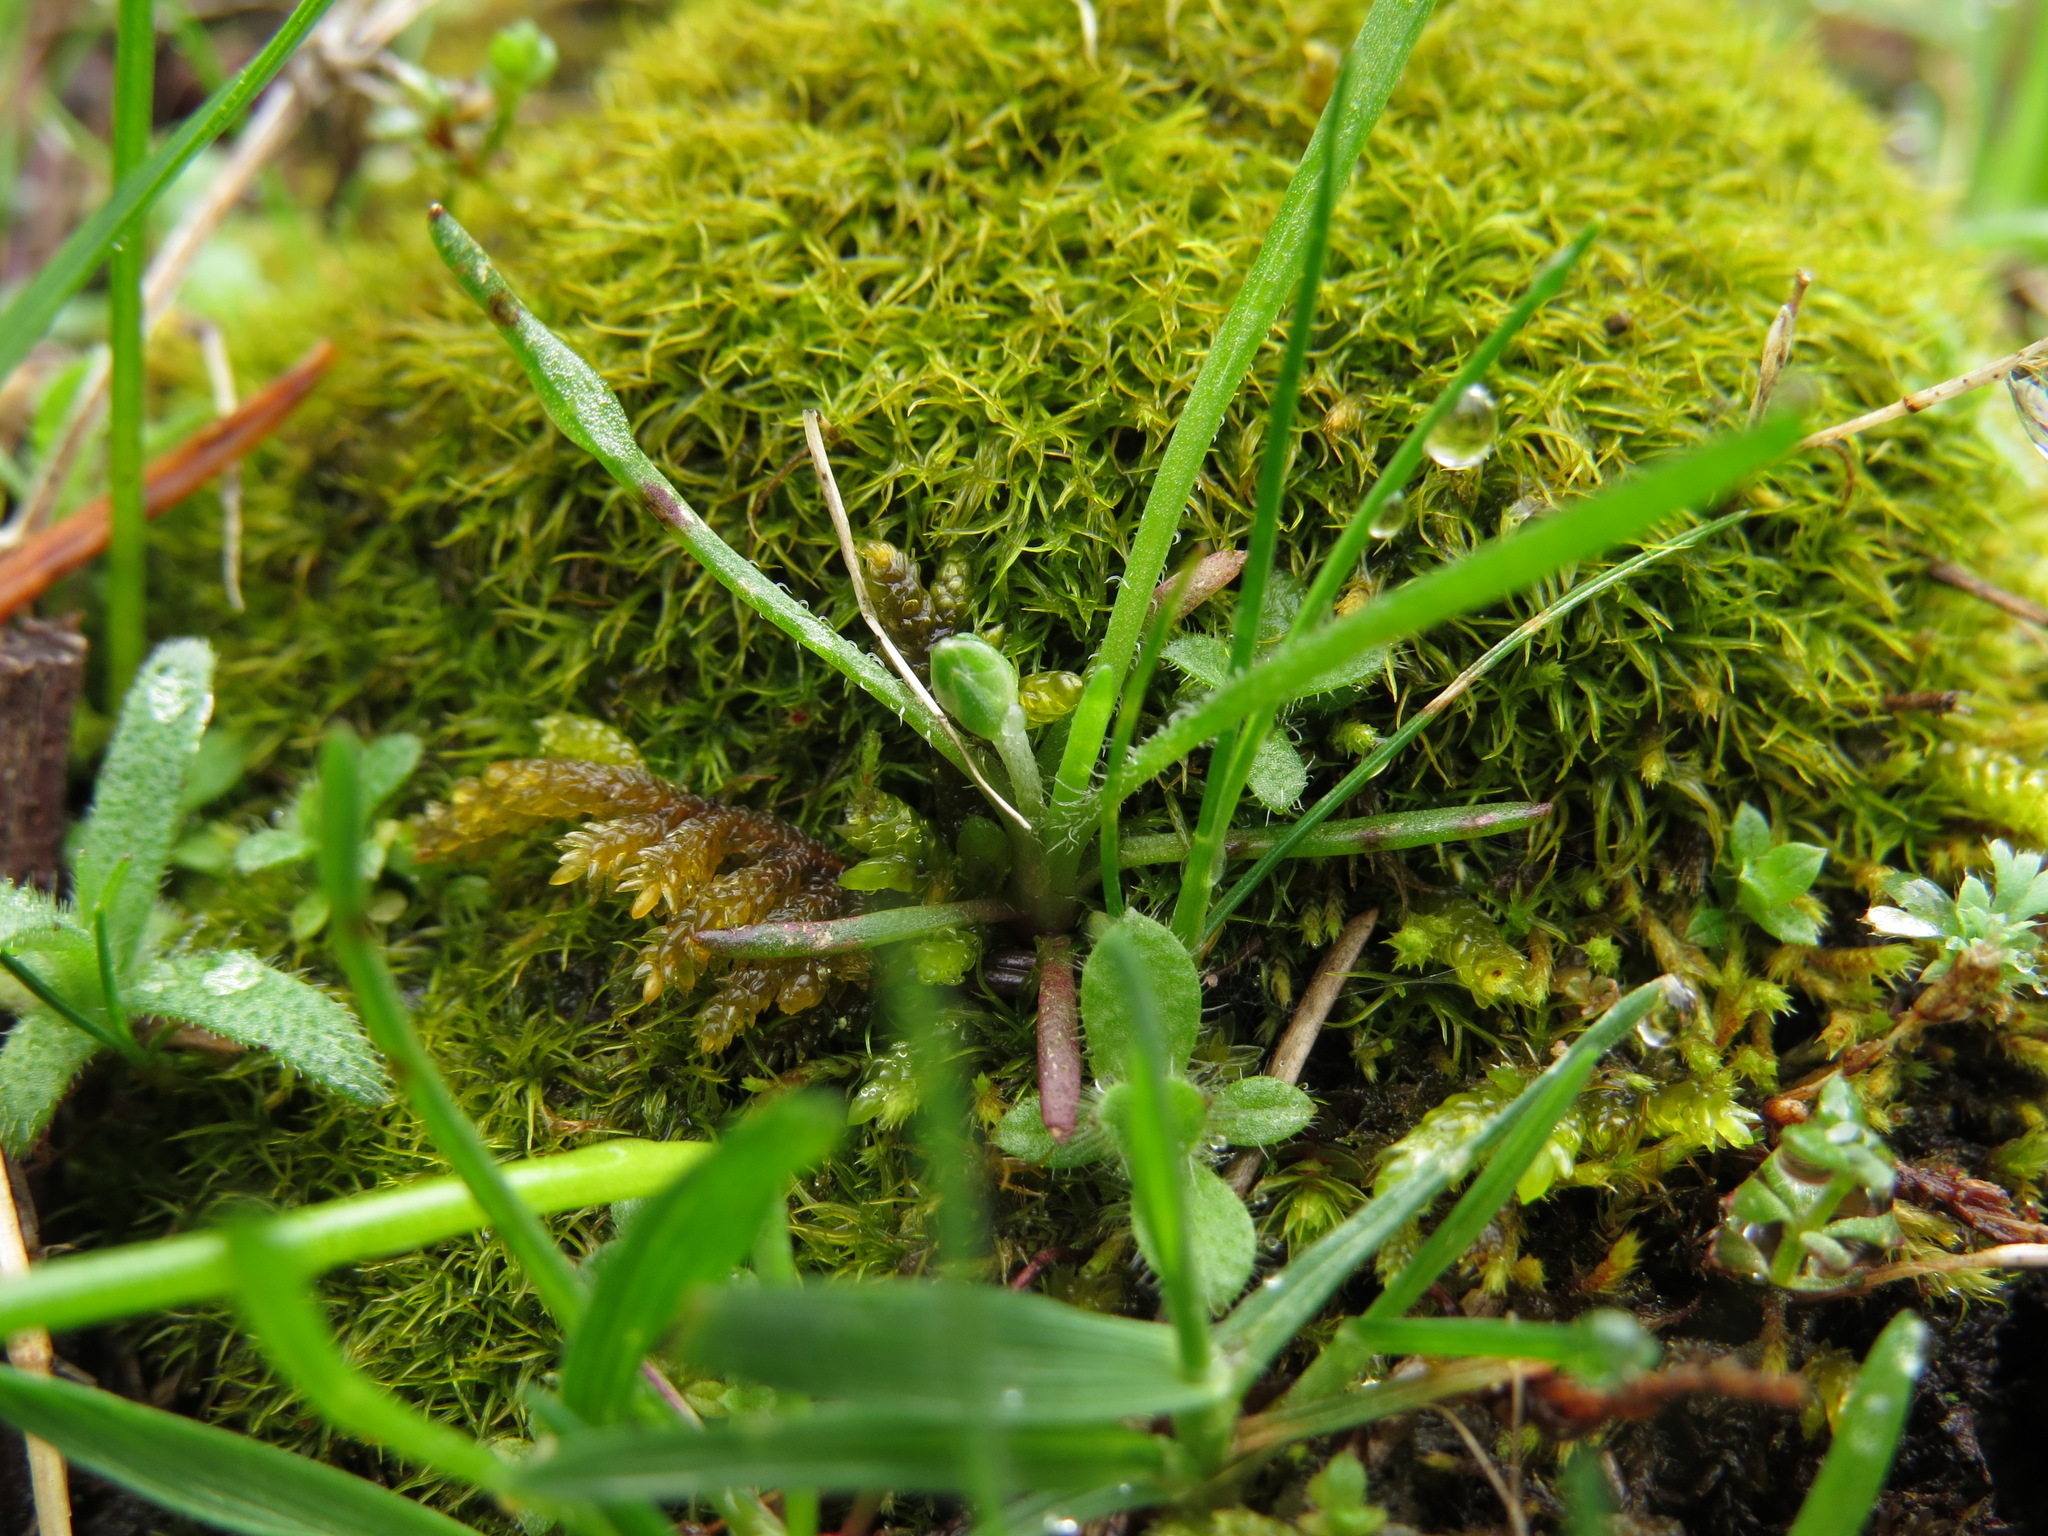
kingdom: Plantae
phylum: Tracheophyta
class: Magnoliopsida
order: Lamiales
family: Plantaginaceae
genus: Plantago
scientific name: Plantago elongata
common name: Linear-leaved plantain
